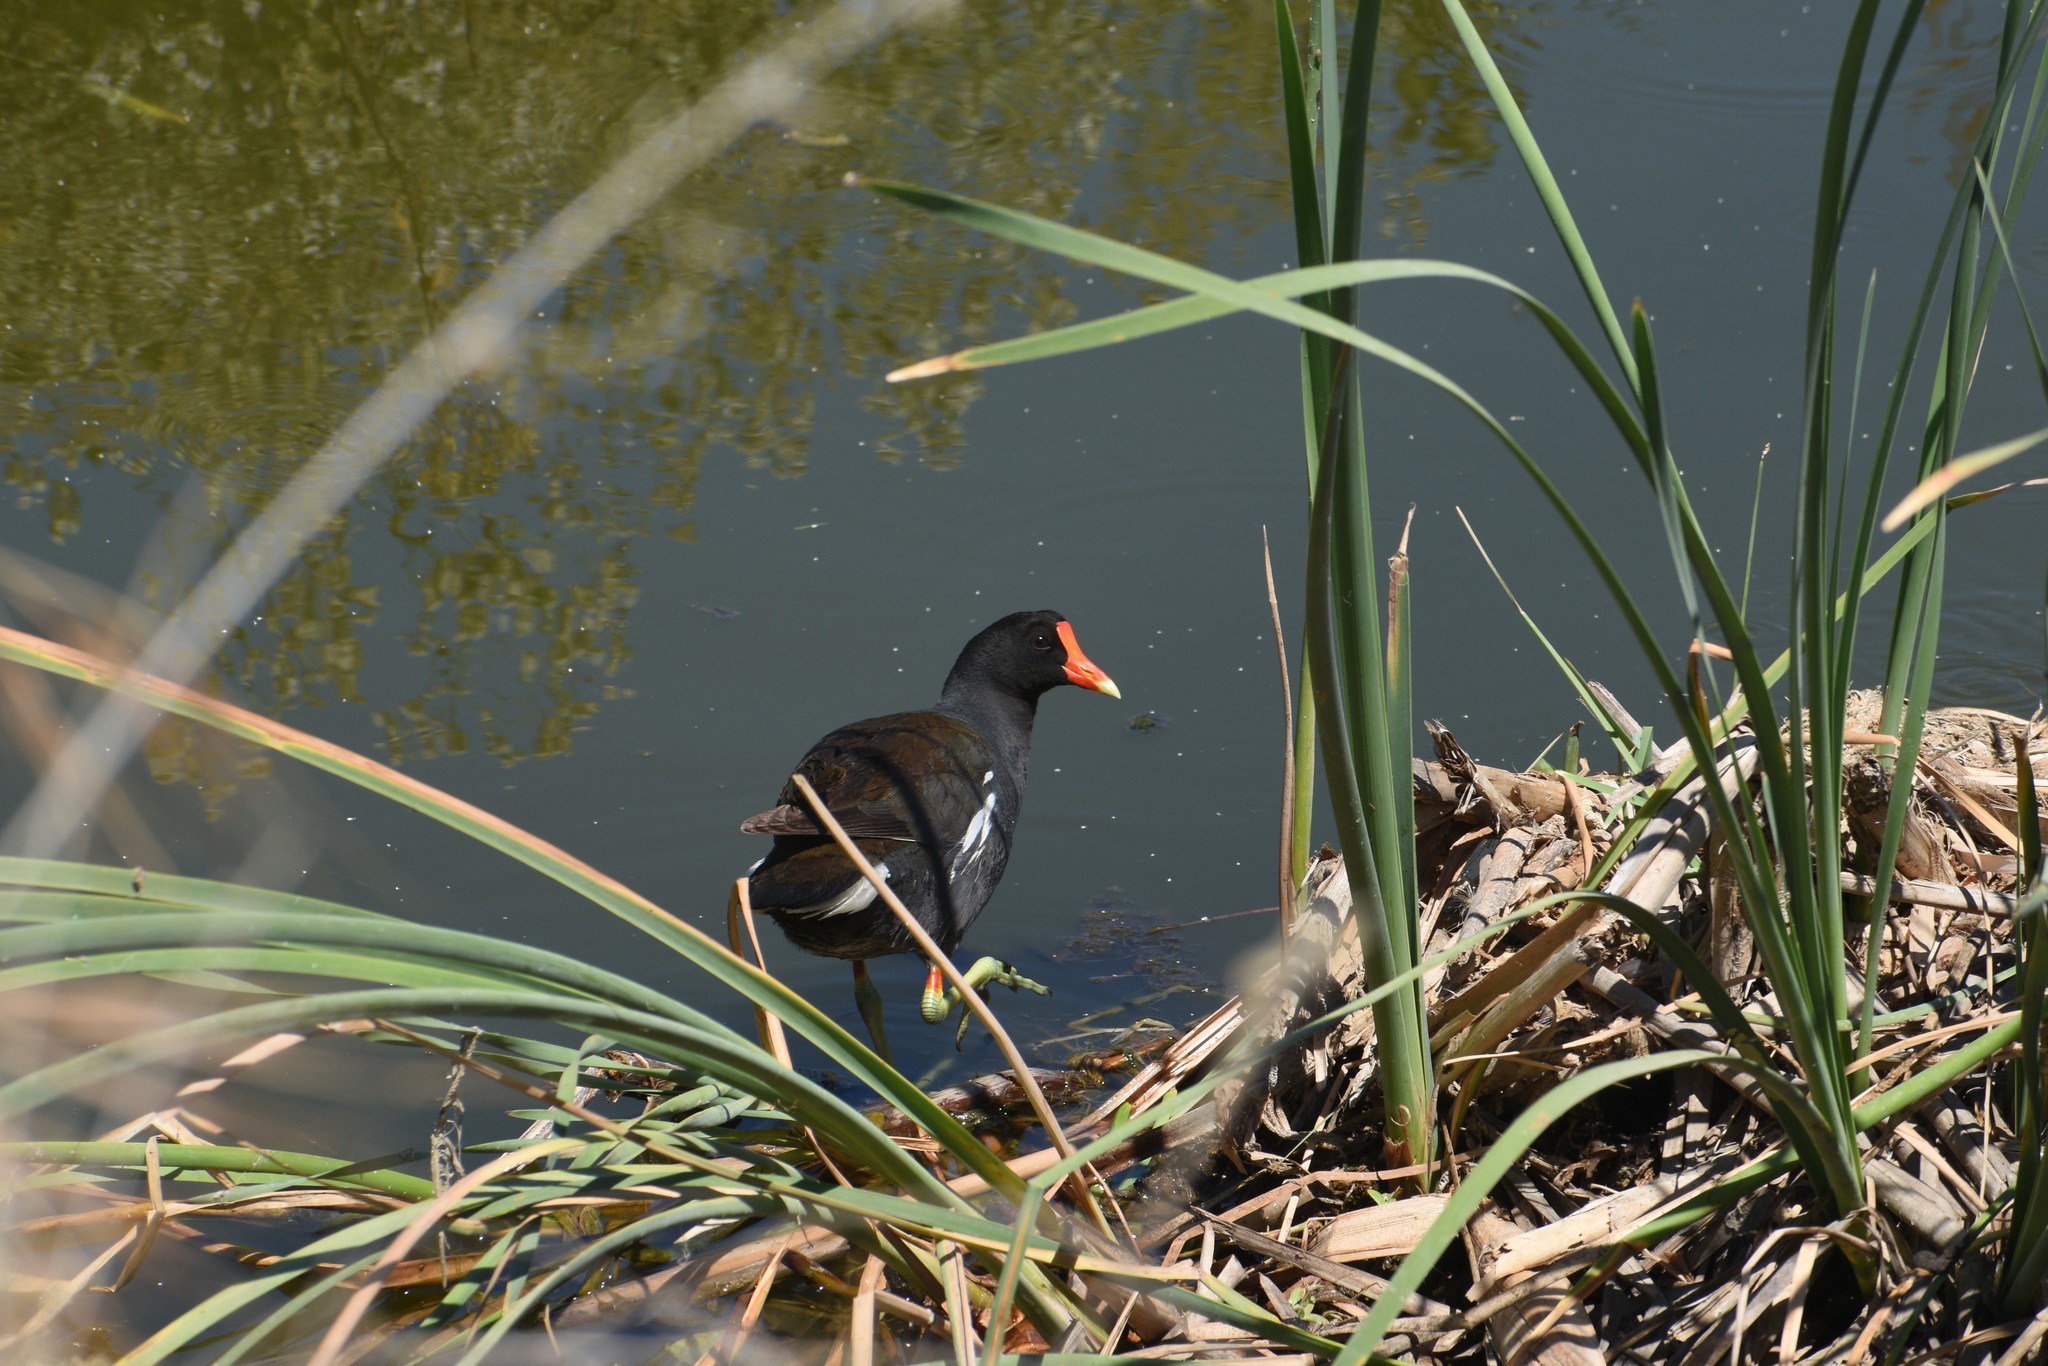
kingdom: Animalia
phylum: Chordata
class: Aves
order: Gruiformes
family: Rallidae
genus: Gallinula
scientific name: Gallinula chloropus
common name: Common moorhen
